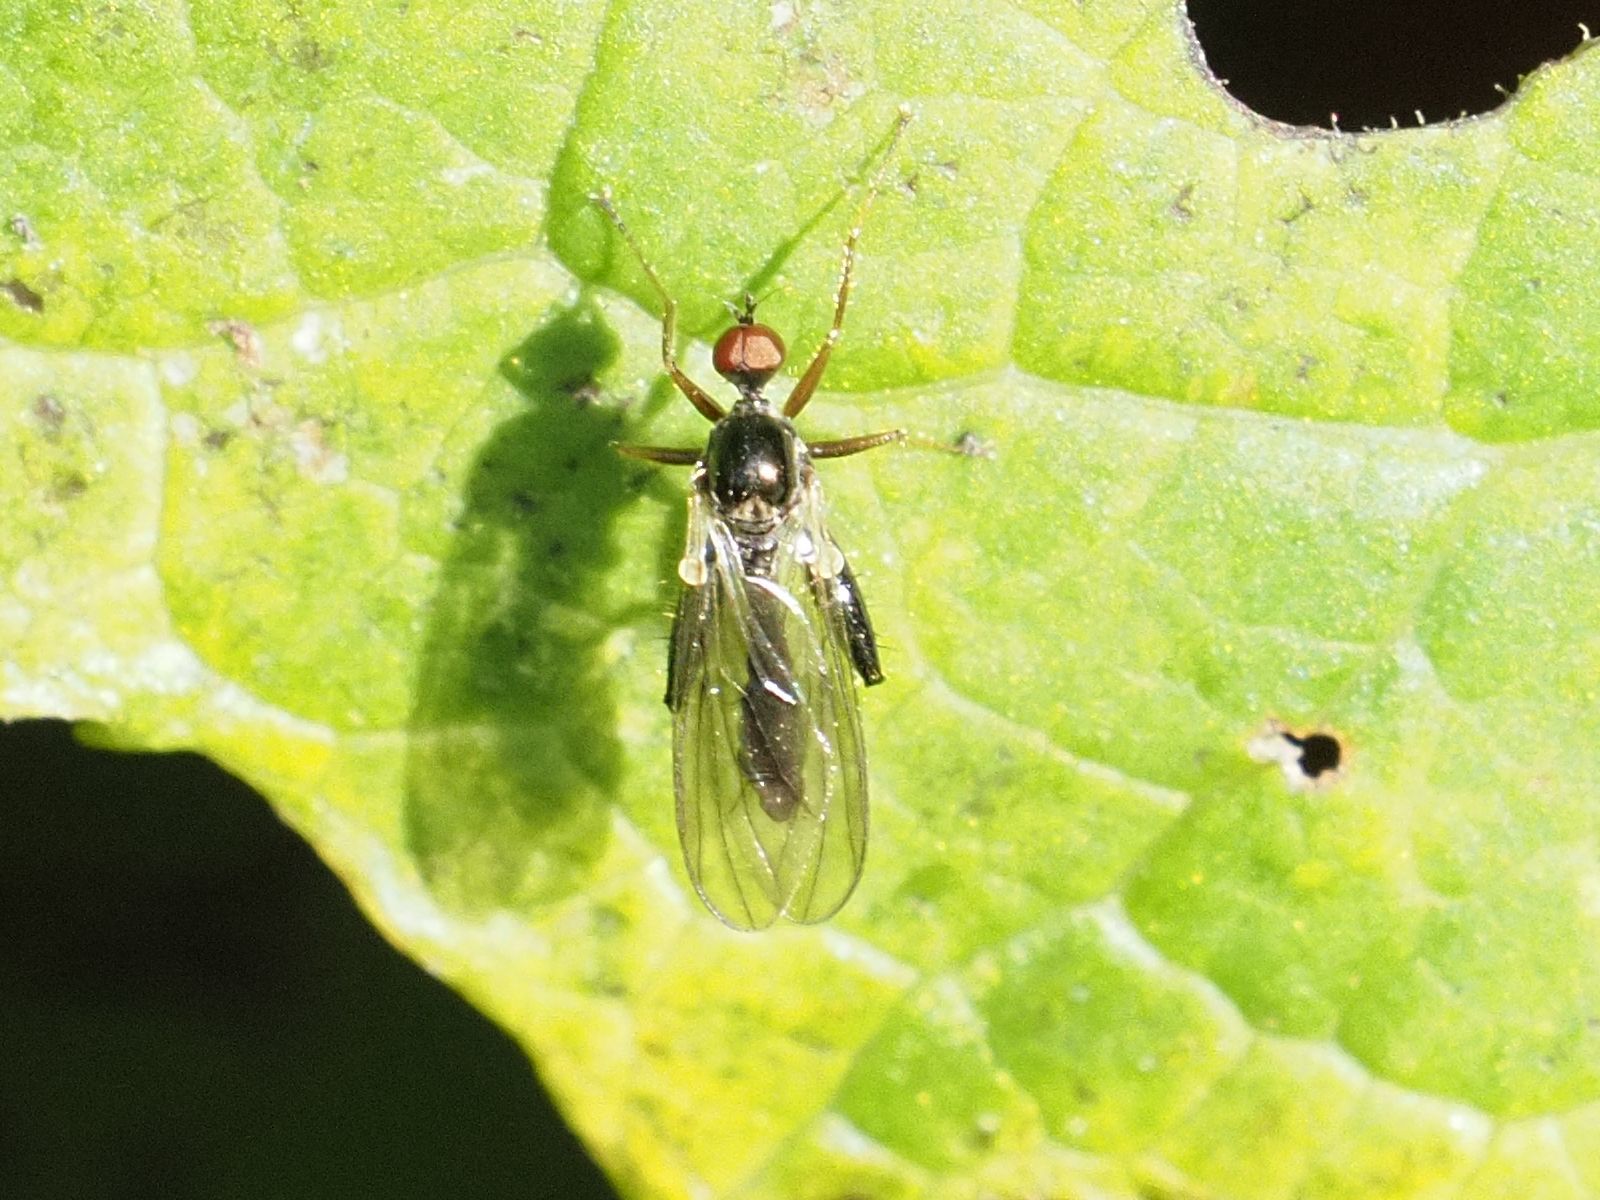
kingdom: Animalia
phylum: Arthropoda
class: Insecta
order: Diptera
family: Hybotidae
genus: Hybos
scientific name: Hybos femoratus
